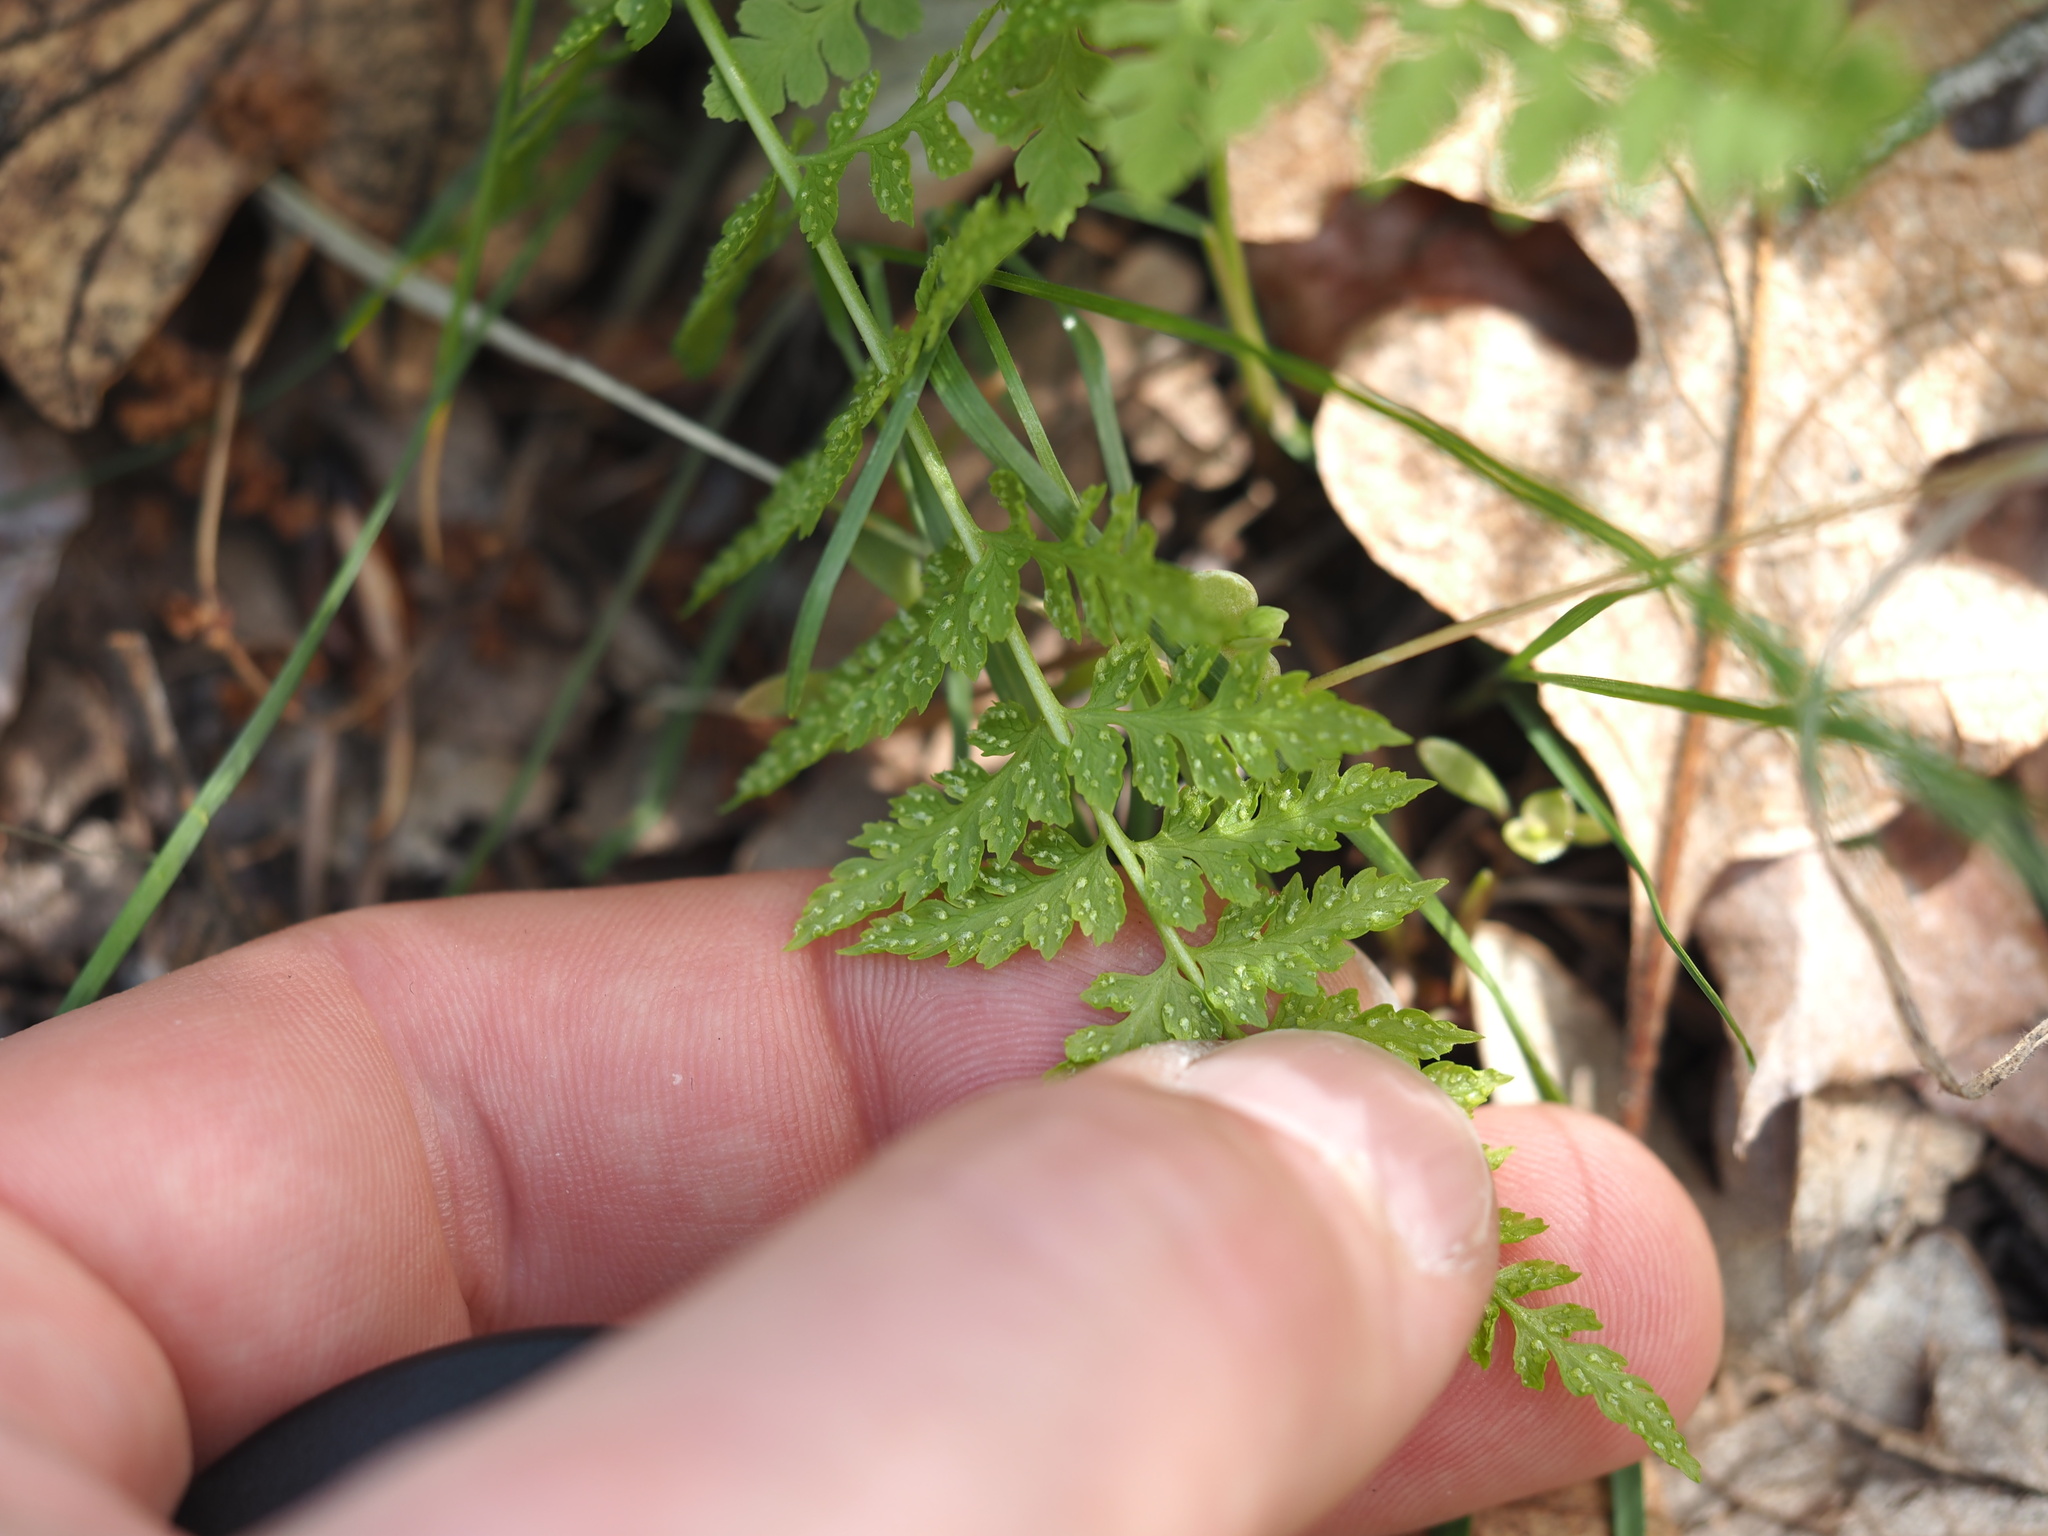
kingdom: Plantae
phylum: Tracheophyta
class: Polypodiopsida
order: Polypodiales
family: Cystopteridaceae
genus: Cystopteris
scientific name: Cystopteris fragilis
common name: Brittle bladder fern
